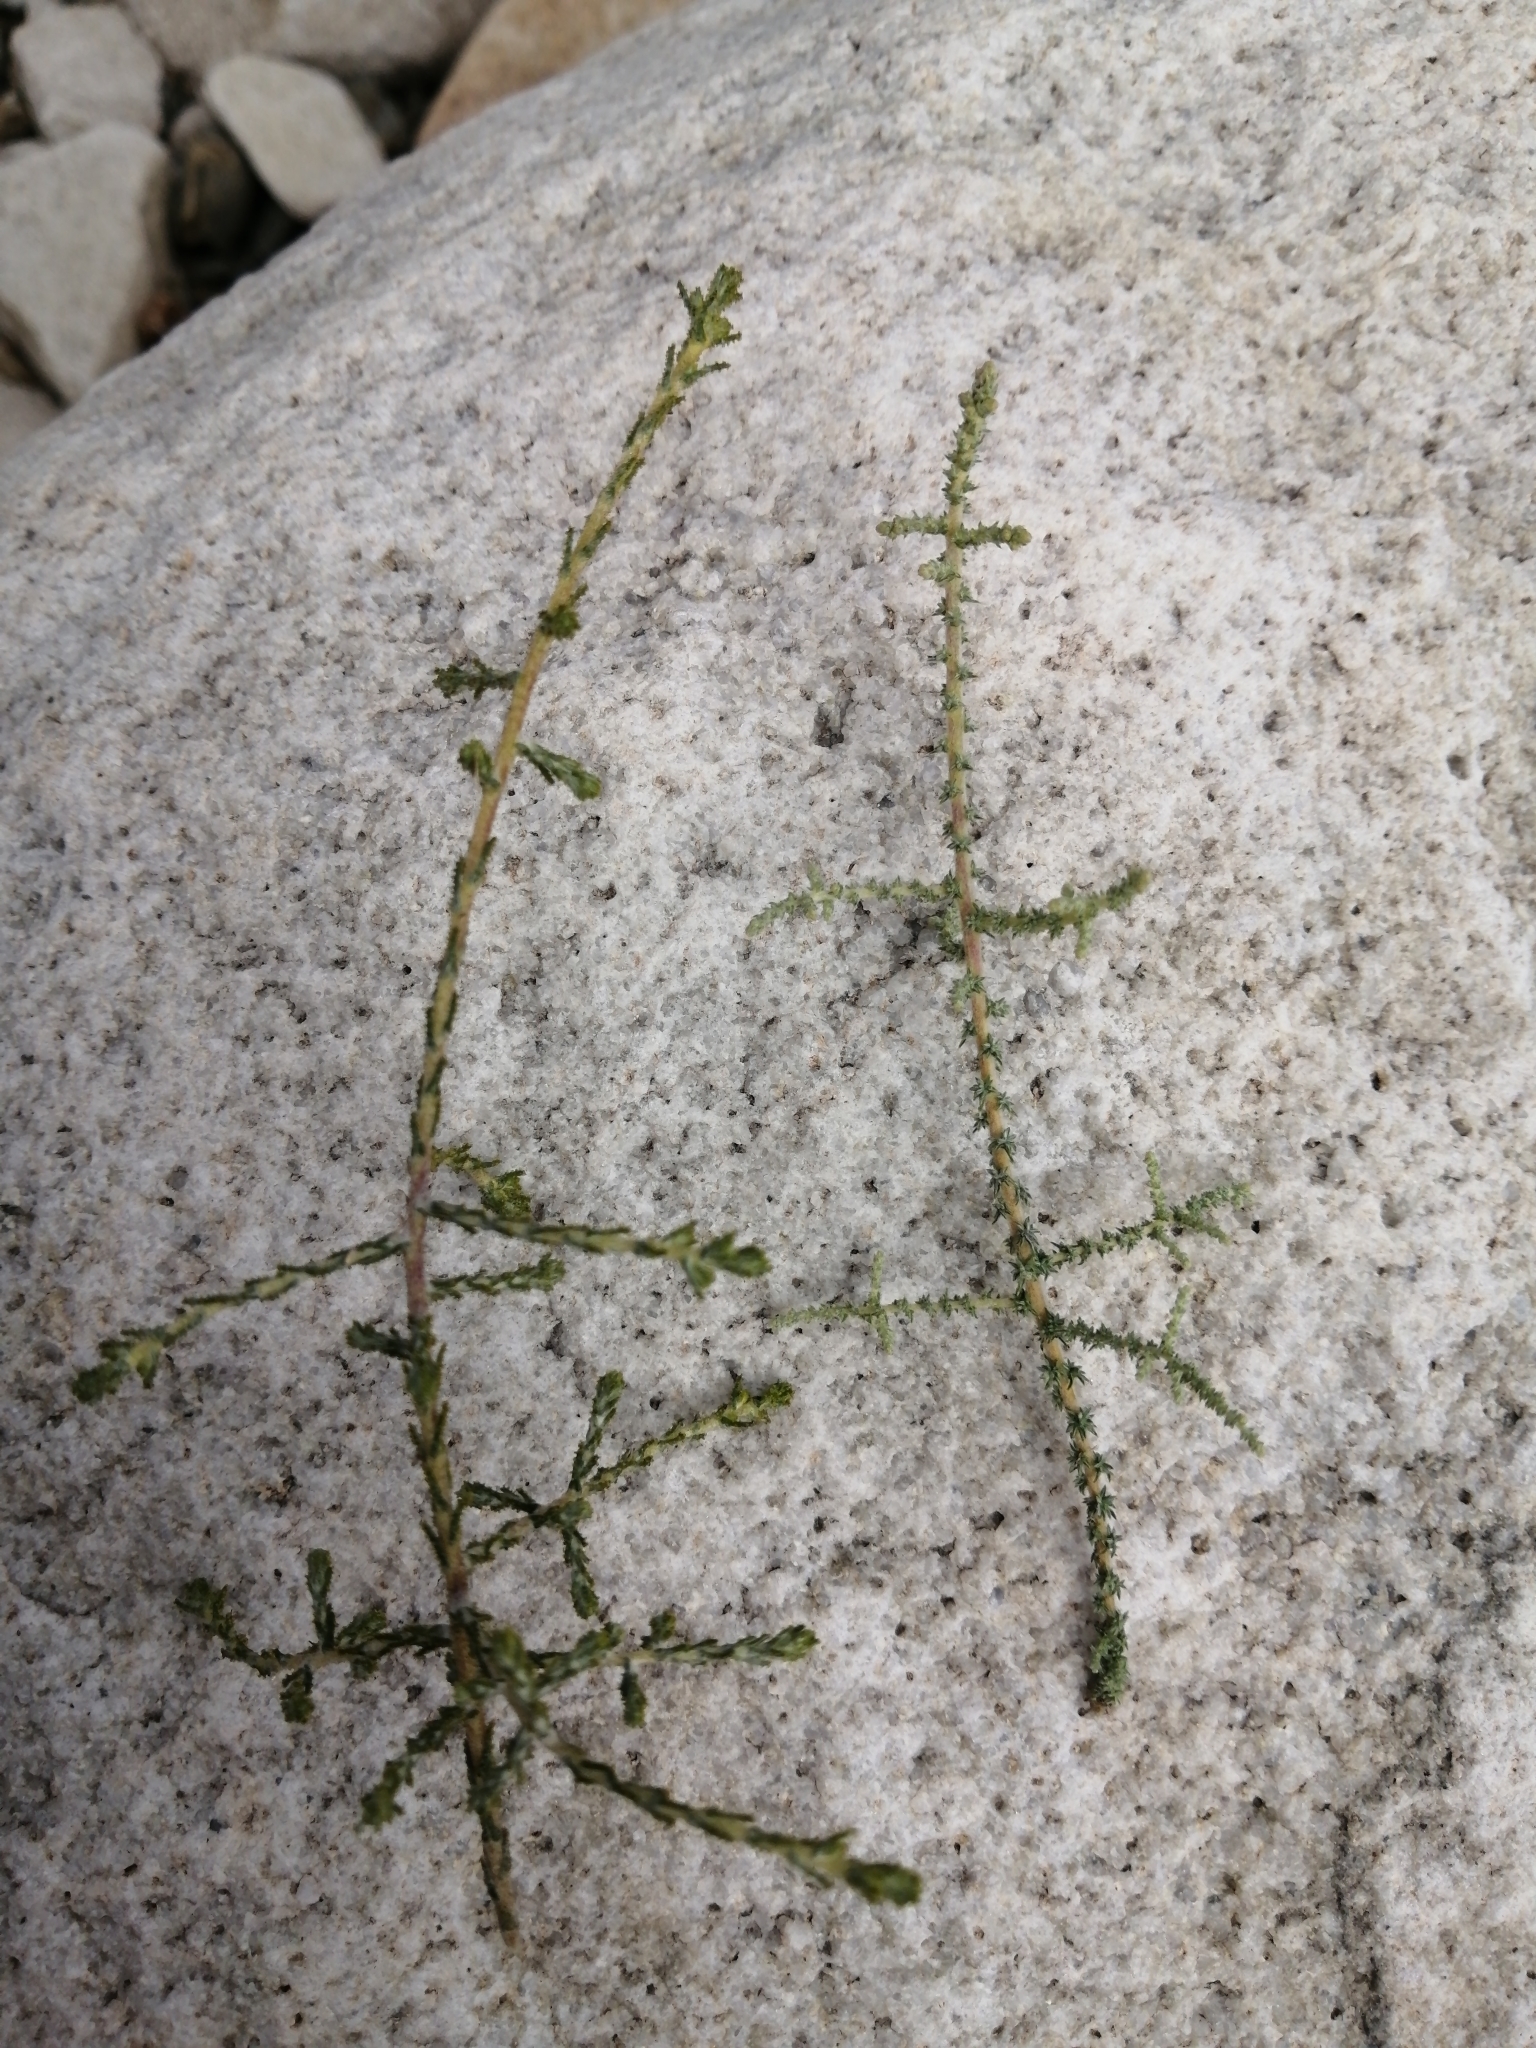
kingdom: Plantae
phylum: Tracheophyta
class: Magnoliopsida
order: Asterales
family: Asteraceae
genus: Myrovernix
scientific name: Myrovernix intricata
